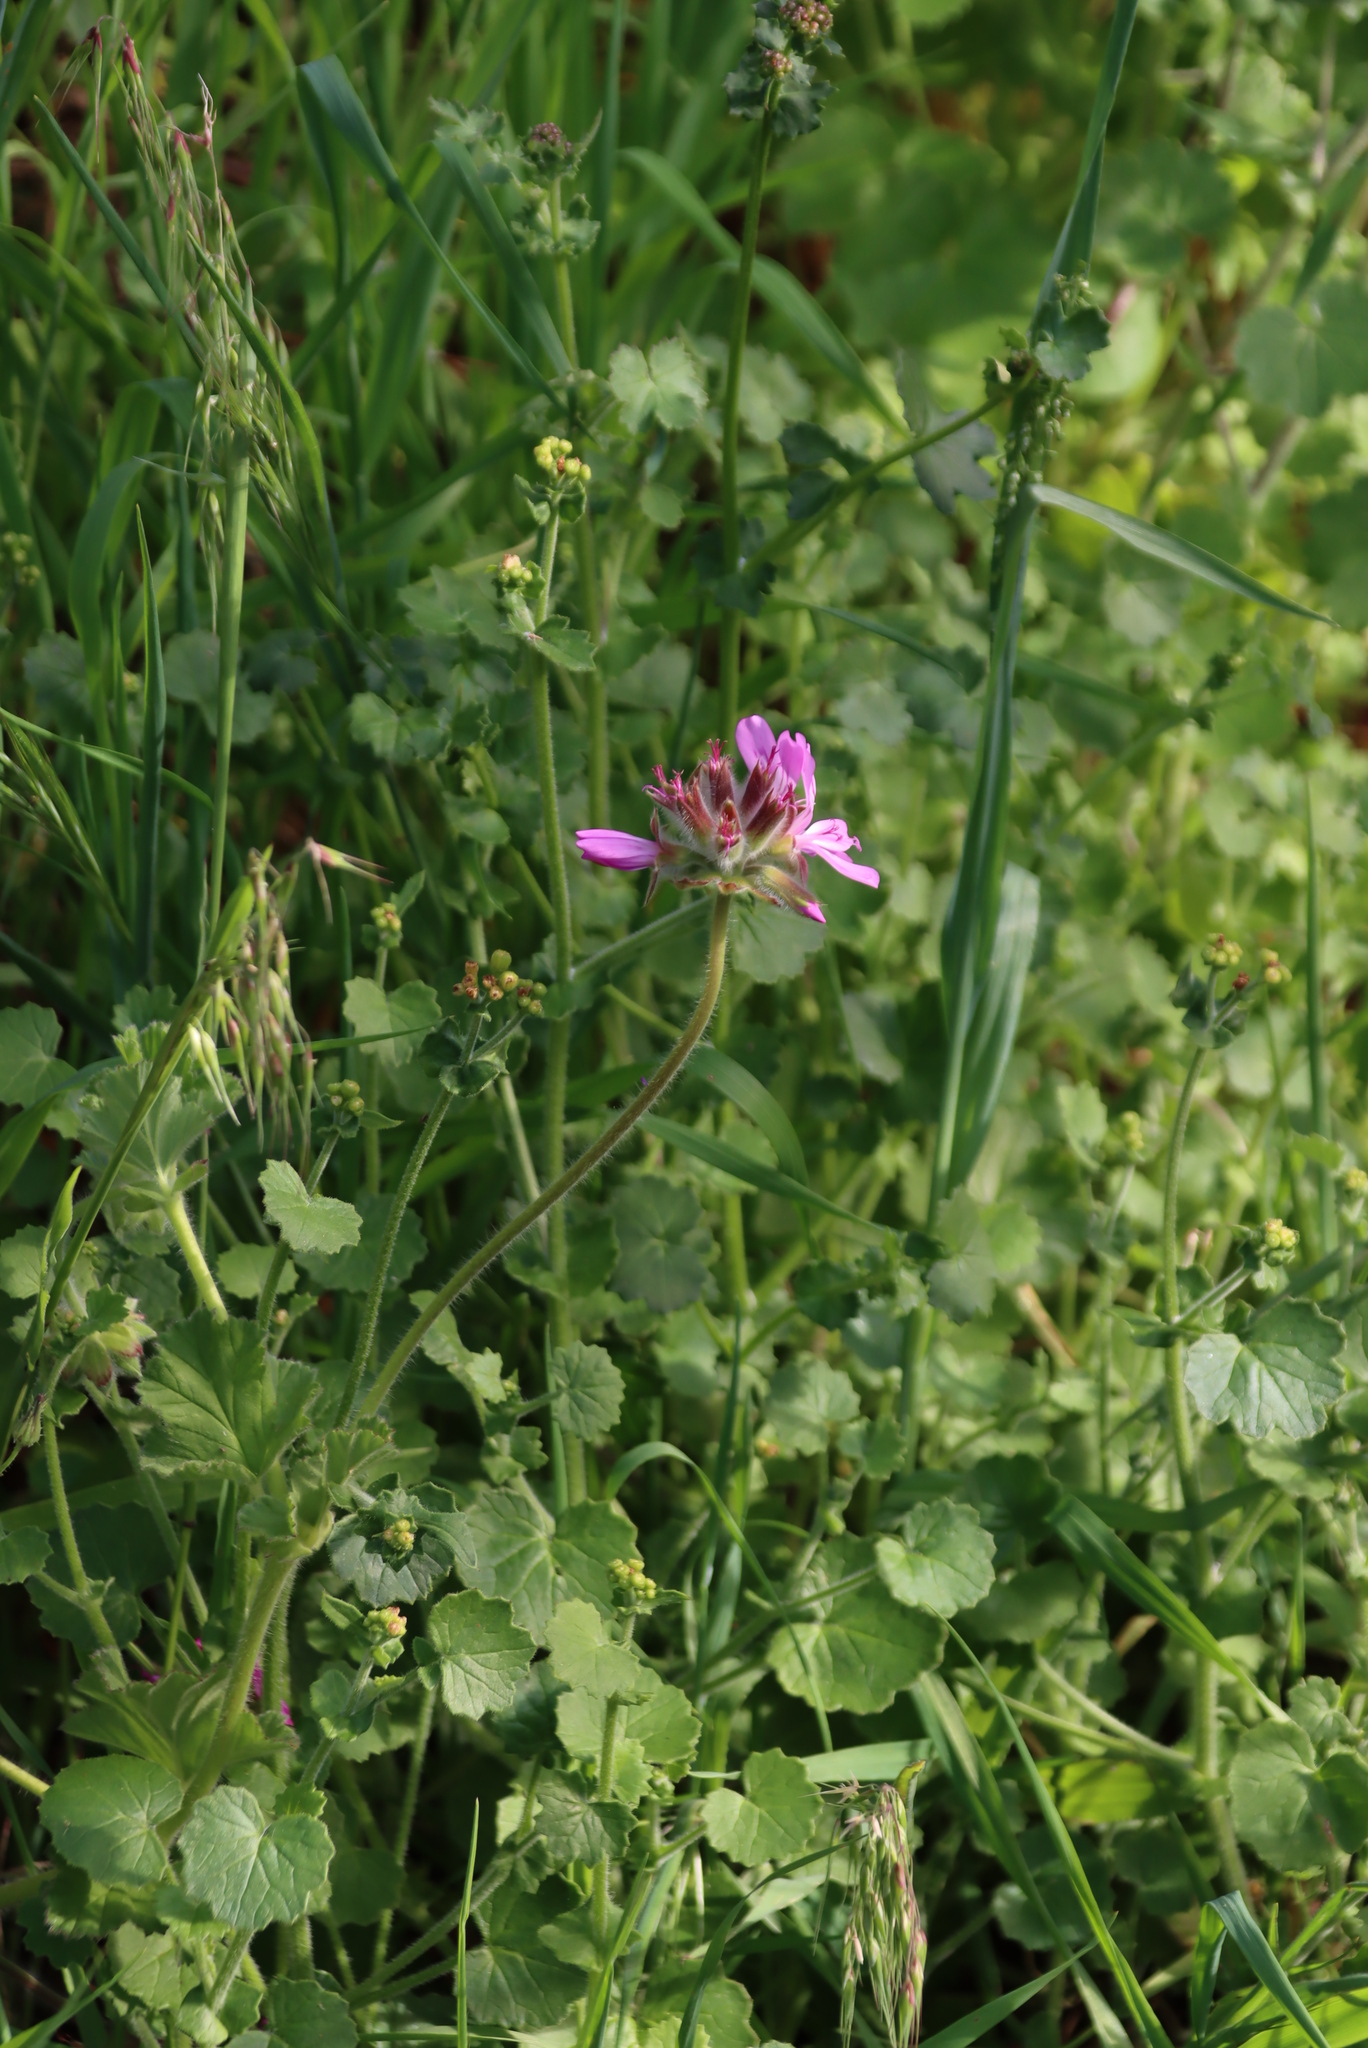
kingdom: Plantae
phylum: Tracheophyta
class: Magnoliopsida
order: Geraniales
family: Geraniaceae
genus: Pelargonium
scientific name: Pelargonium capitatum
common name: Rose scented geranium
